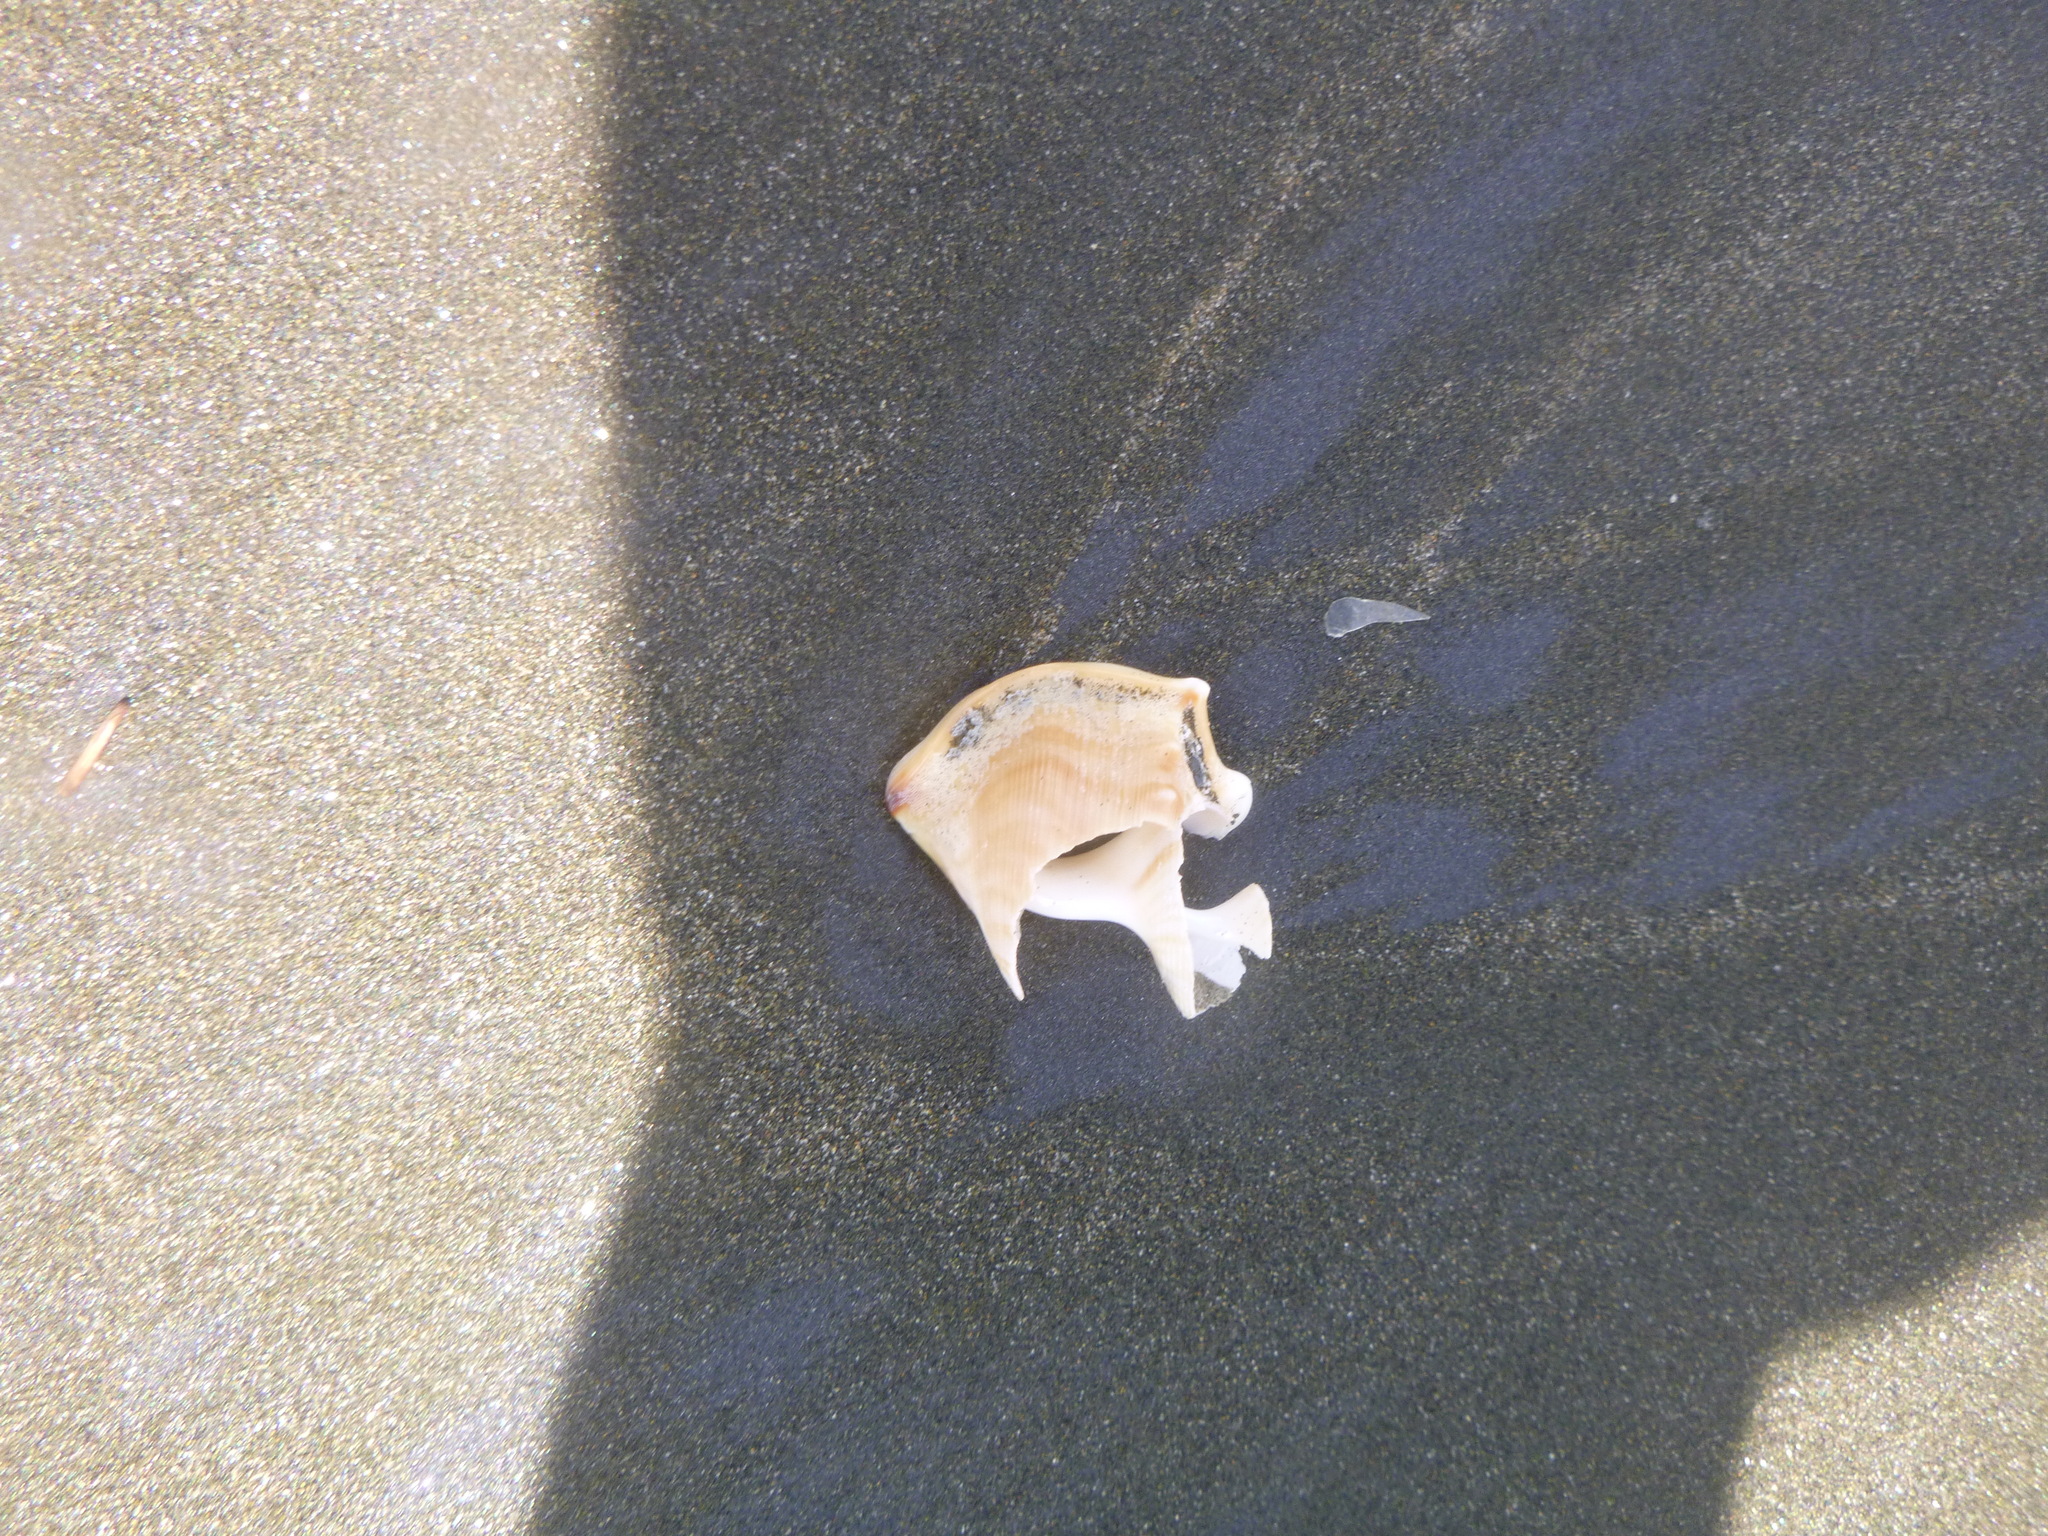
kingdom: Animalia
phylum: Mollusca
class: Gastropoda
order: Littorinimorpha
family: Struthiolariidae
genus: Struthiolaria
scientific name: Struthiolaria papulosa
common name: Large ostrich foot
